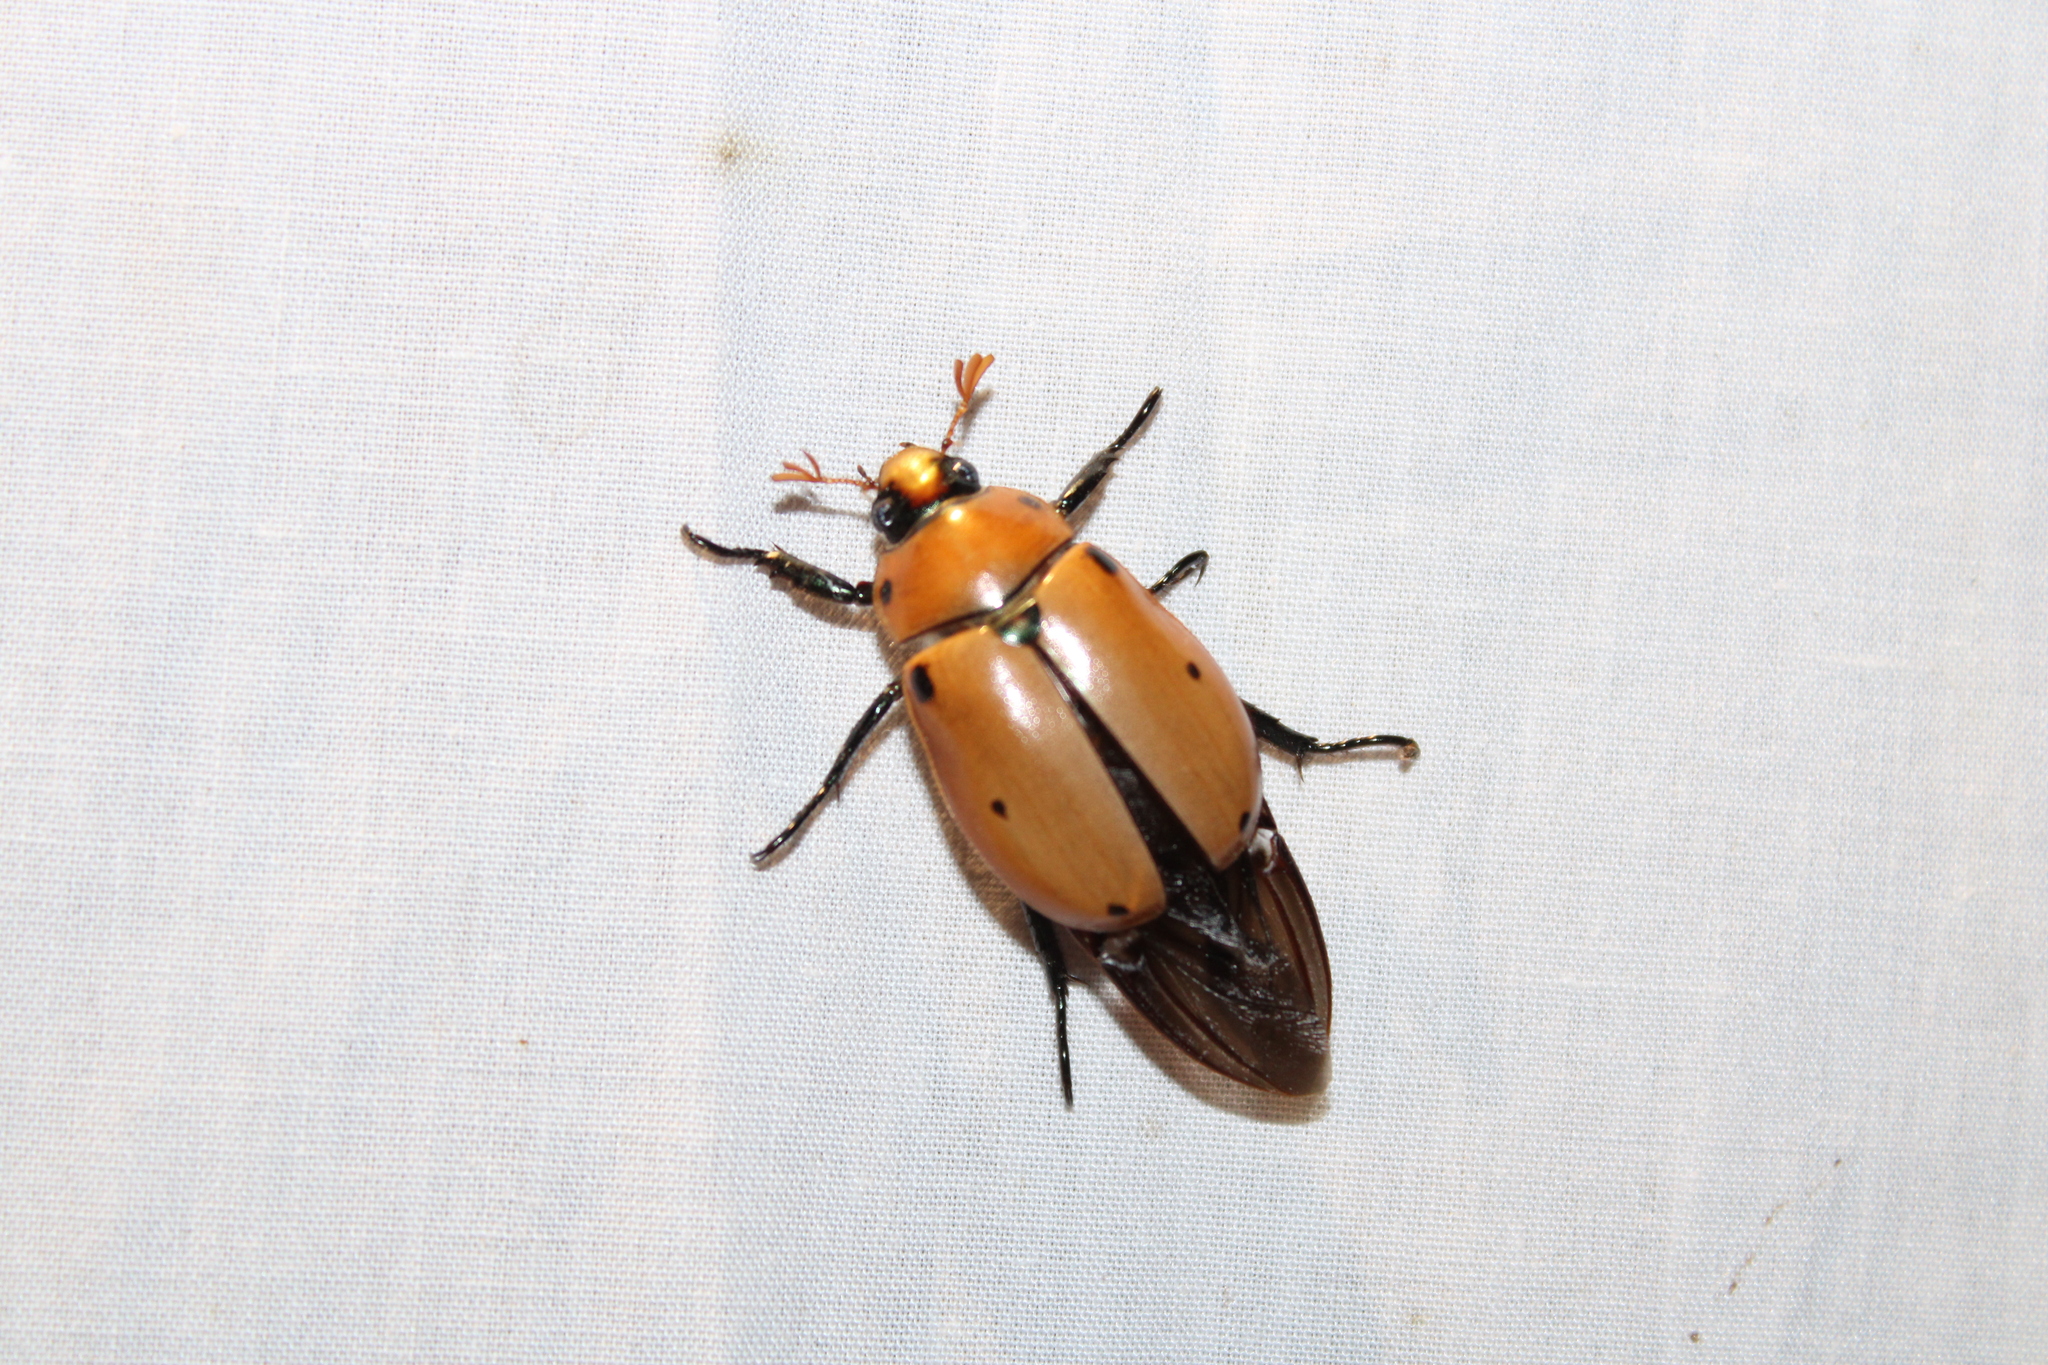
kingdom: Animalia
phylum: Arthropoda
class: Insecta
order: Coleoptera
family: Scarabaeidae
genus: Pelidnota
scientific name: Pelidnota punctata
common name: Grapevine beetle
